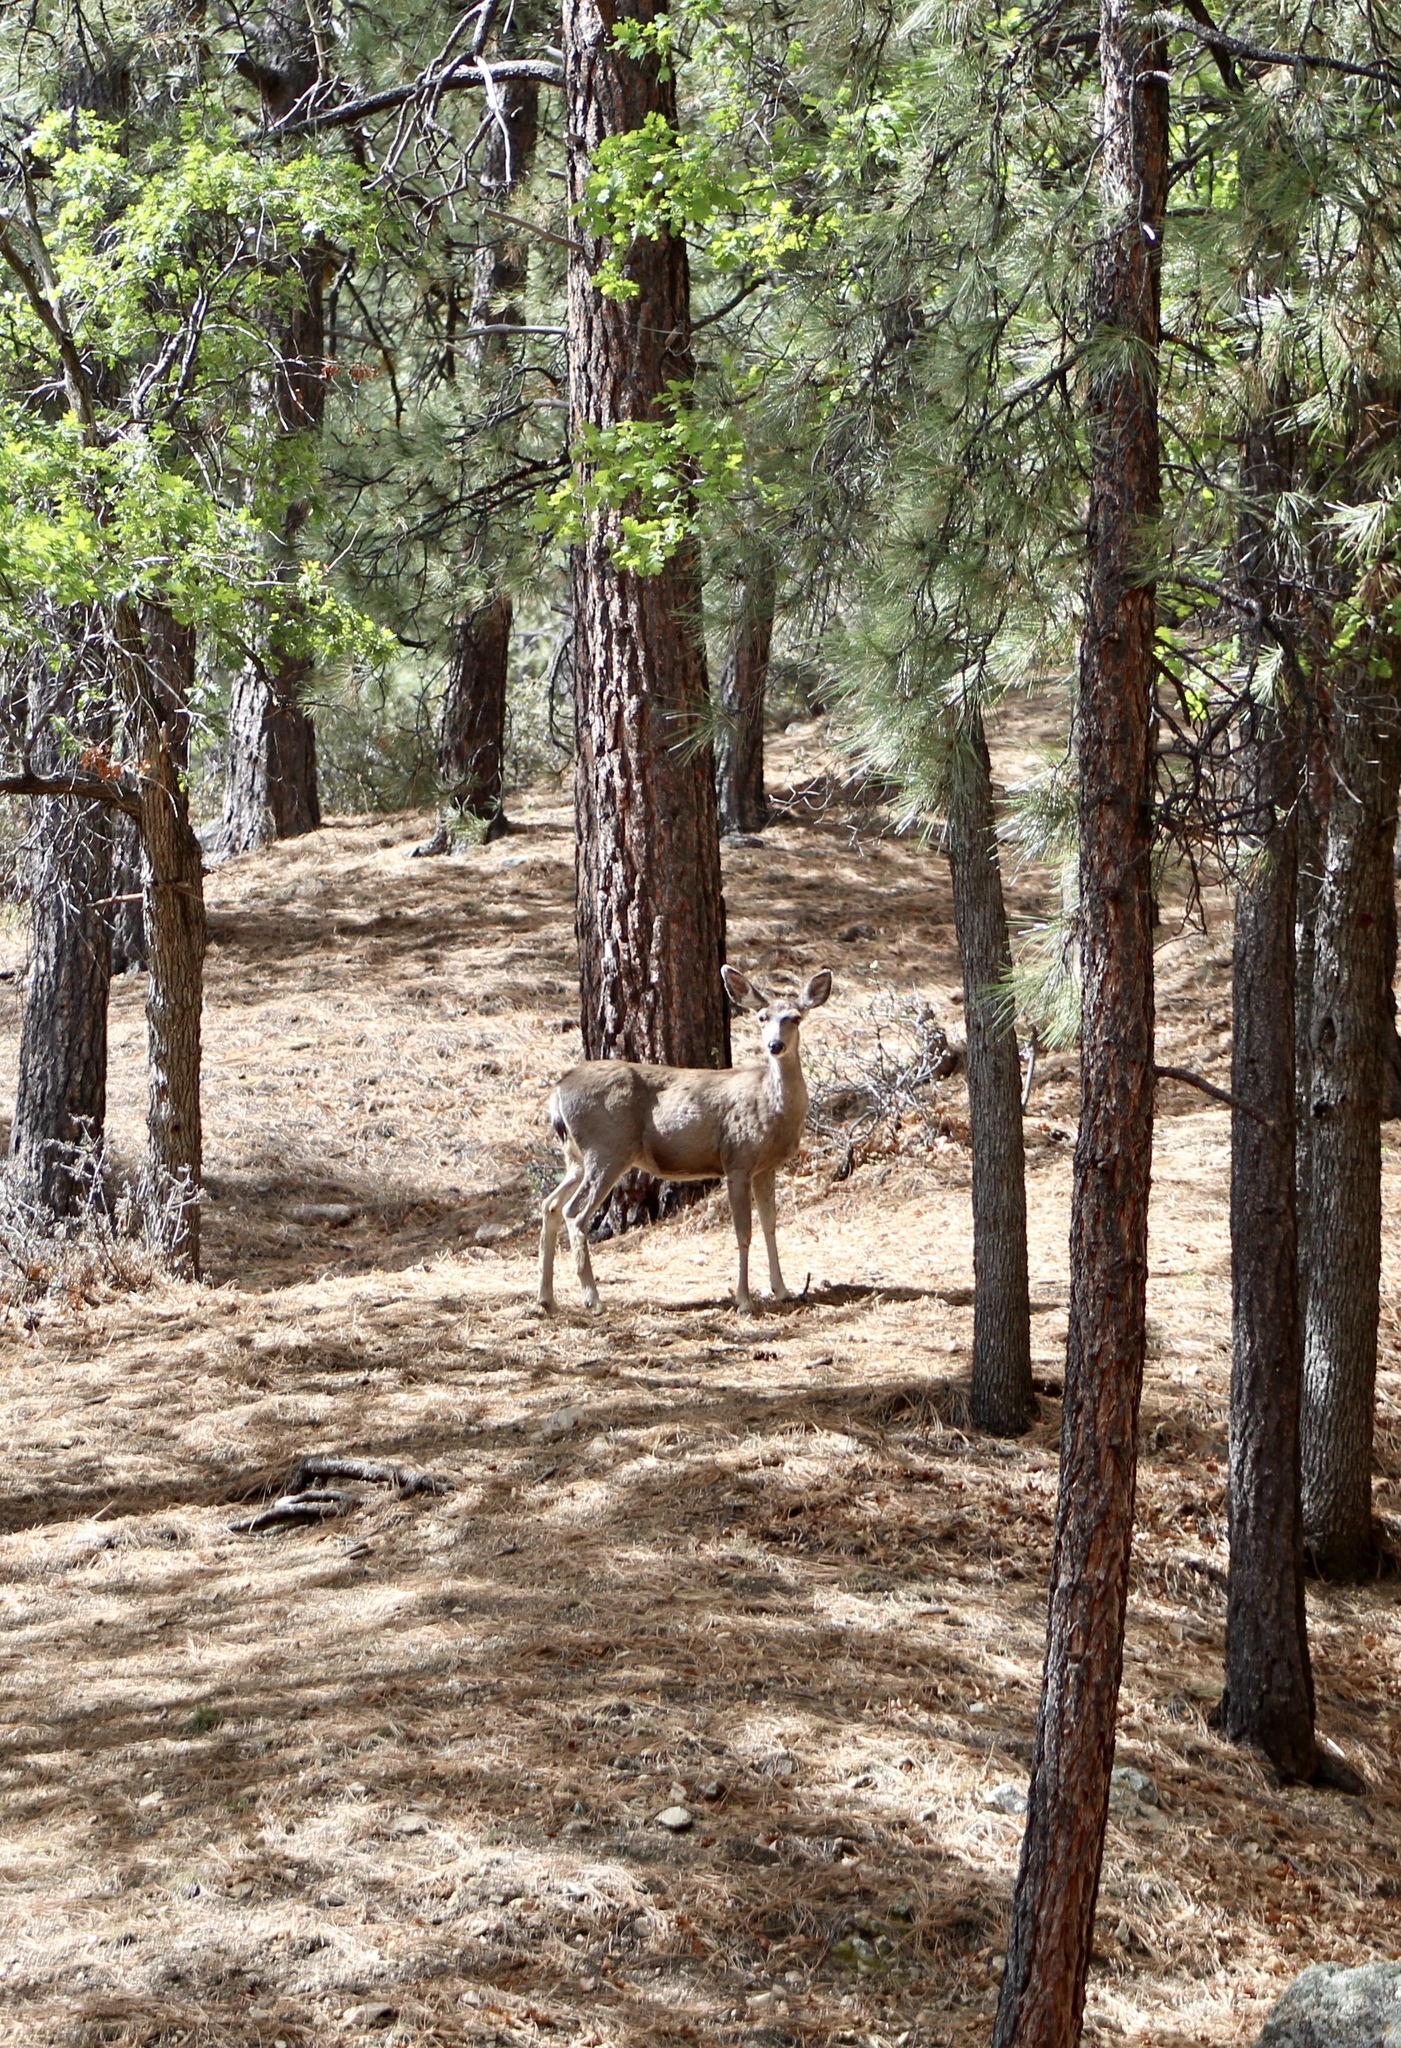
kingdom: Animalia
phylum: Chordata
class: Mammalia
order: Artiodactyla
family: Cervidae
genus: Odocoileus
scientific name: Odocoileus hemionus
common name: Mule deer
